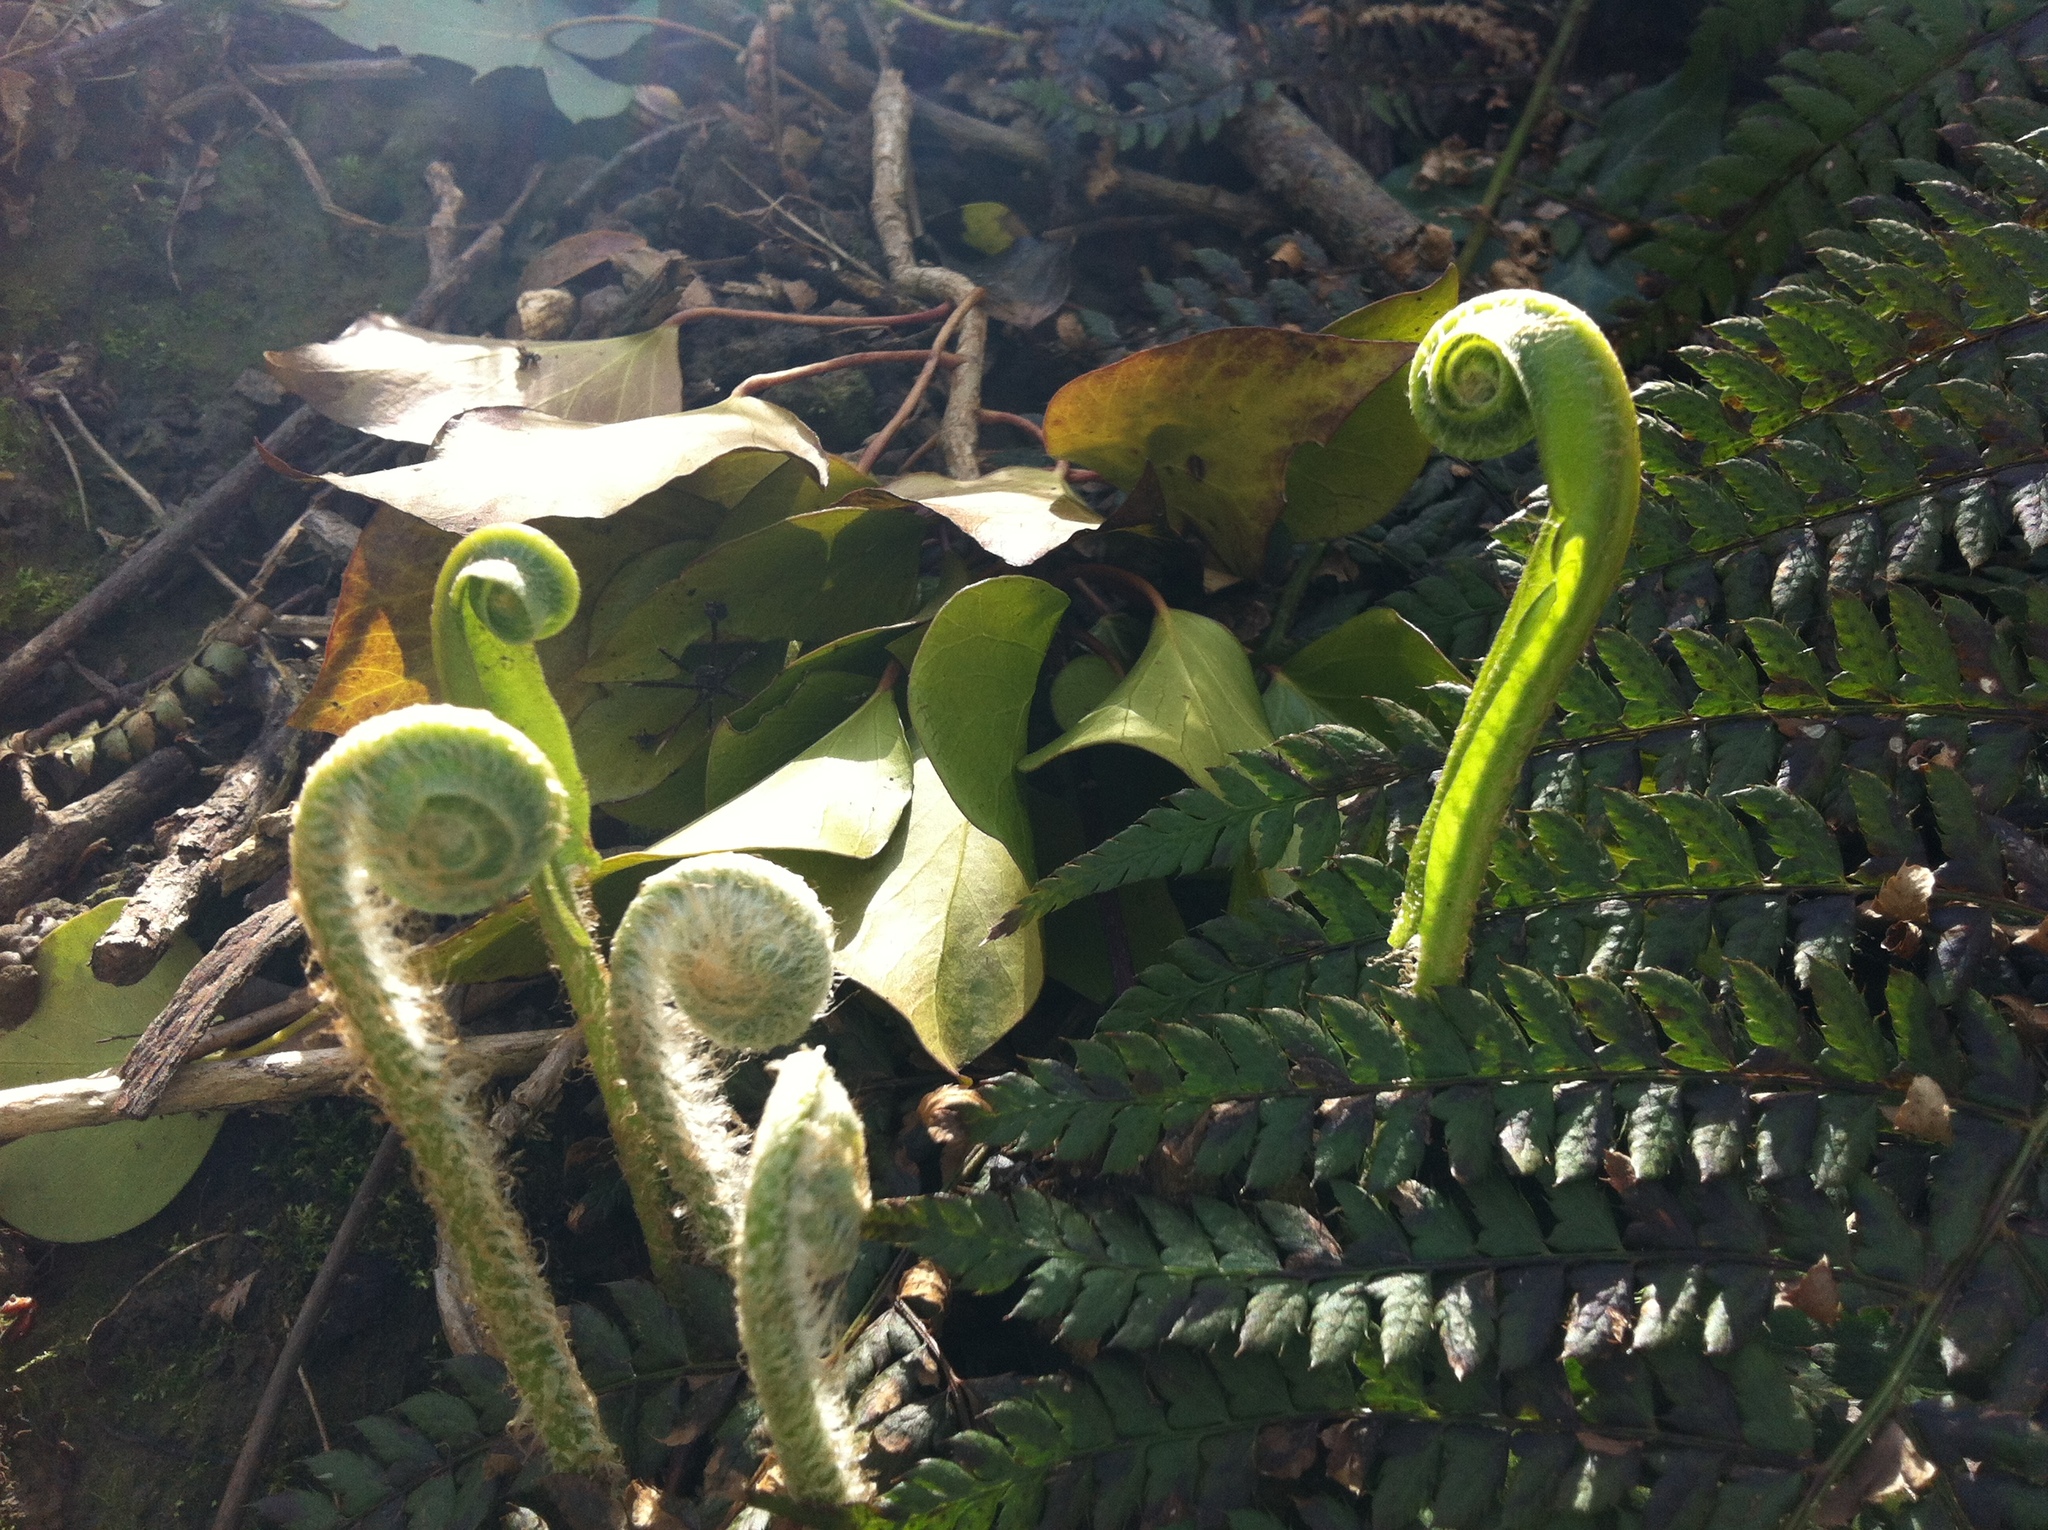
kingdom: Plantae
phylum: Tracheophyta
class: Polypodiopsida
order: Polypodiales
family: Aspleniaceae
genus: Asplenium
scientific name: Asplenium scolopendrium
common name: Hart's-tongue fern
